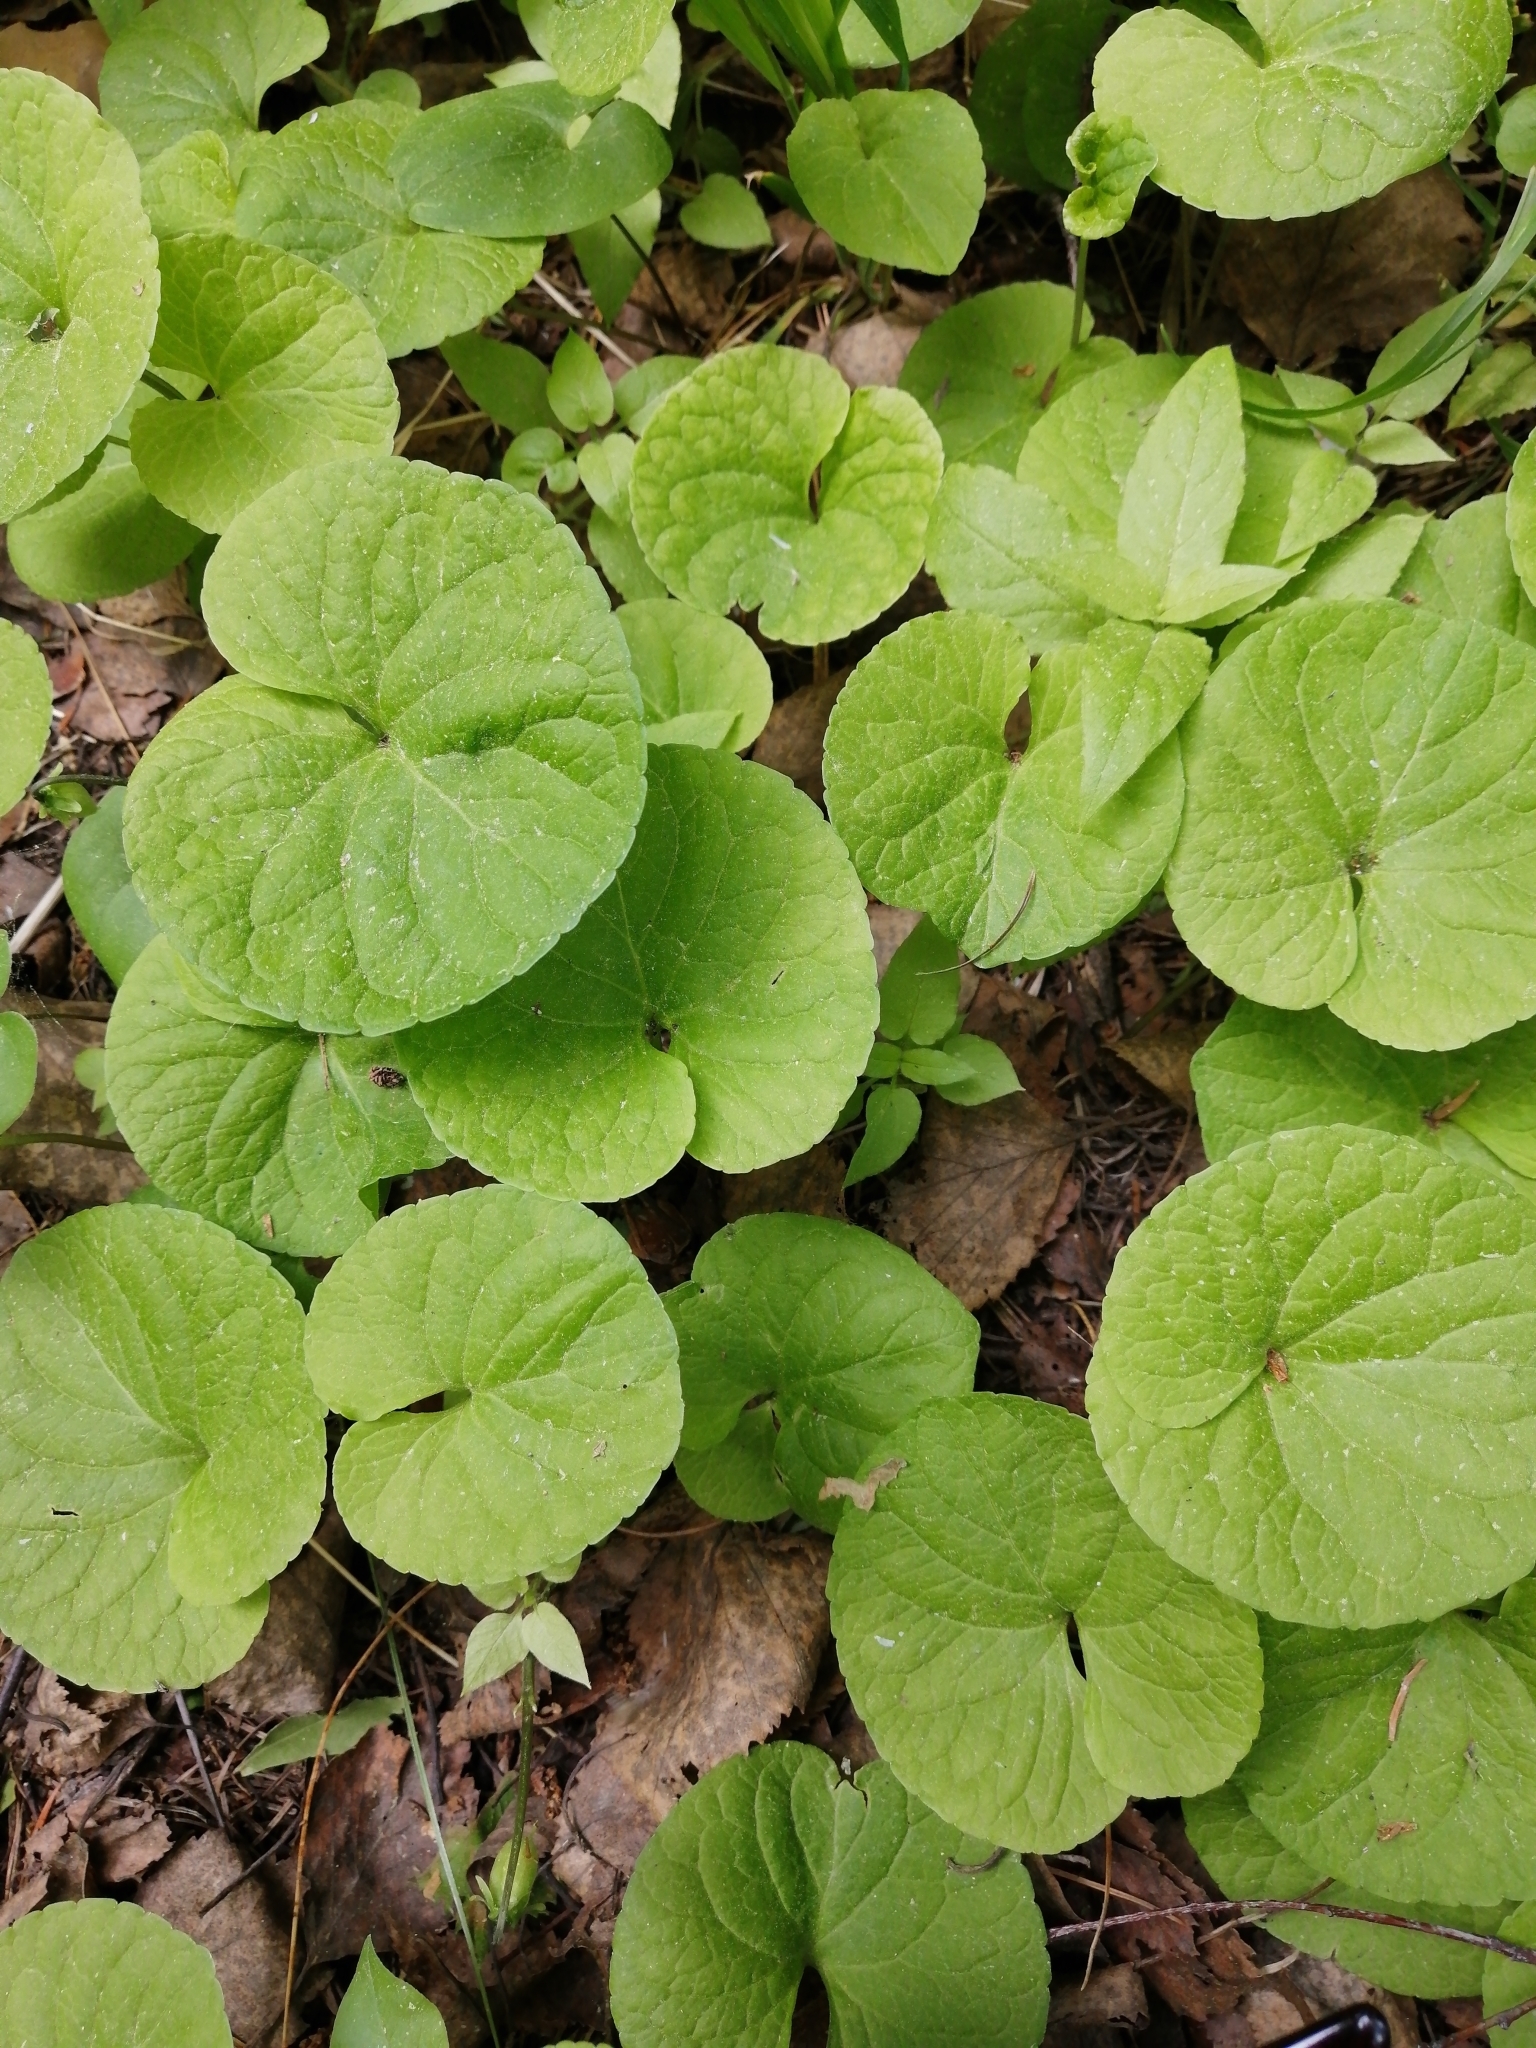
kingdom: Plantae
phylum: Tracheophyta
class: Magnoliopsida
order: Malpighiales
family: Violaceae
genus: Viola
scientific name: Viola epipsila
